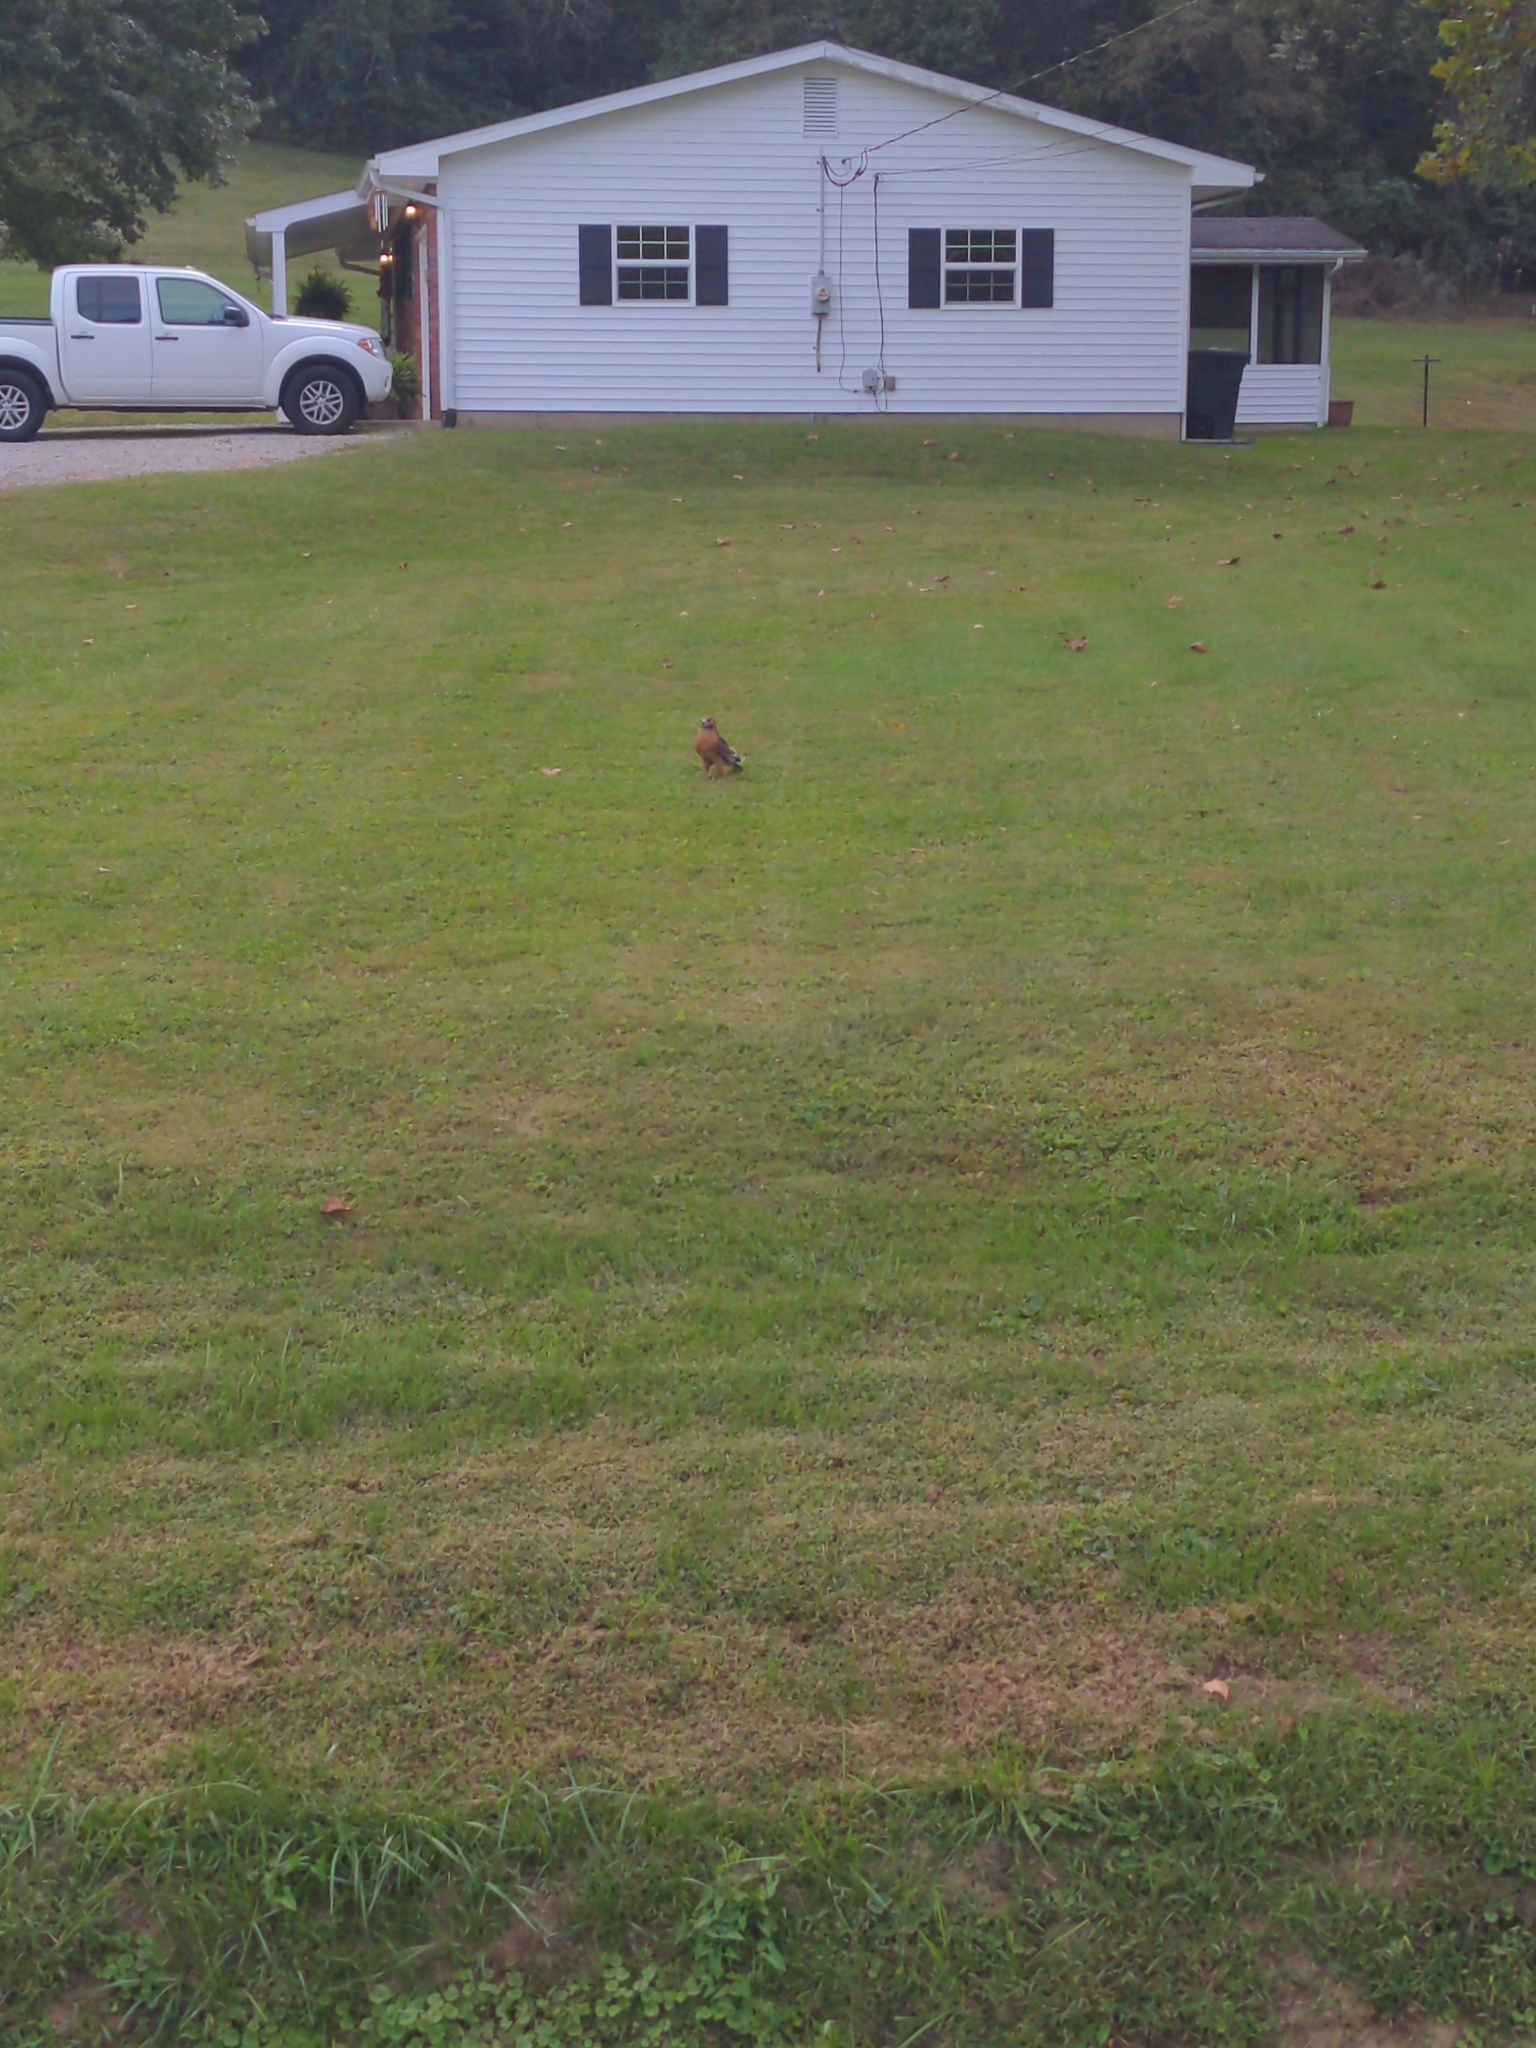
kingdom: Animalia
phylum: Chordata
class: Aves
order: Accipitriformes
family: Accipitridae
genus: Buteo
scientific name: Buteo lineatus
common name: Red-shouldered hawk
